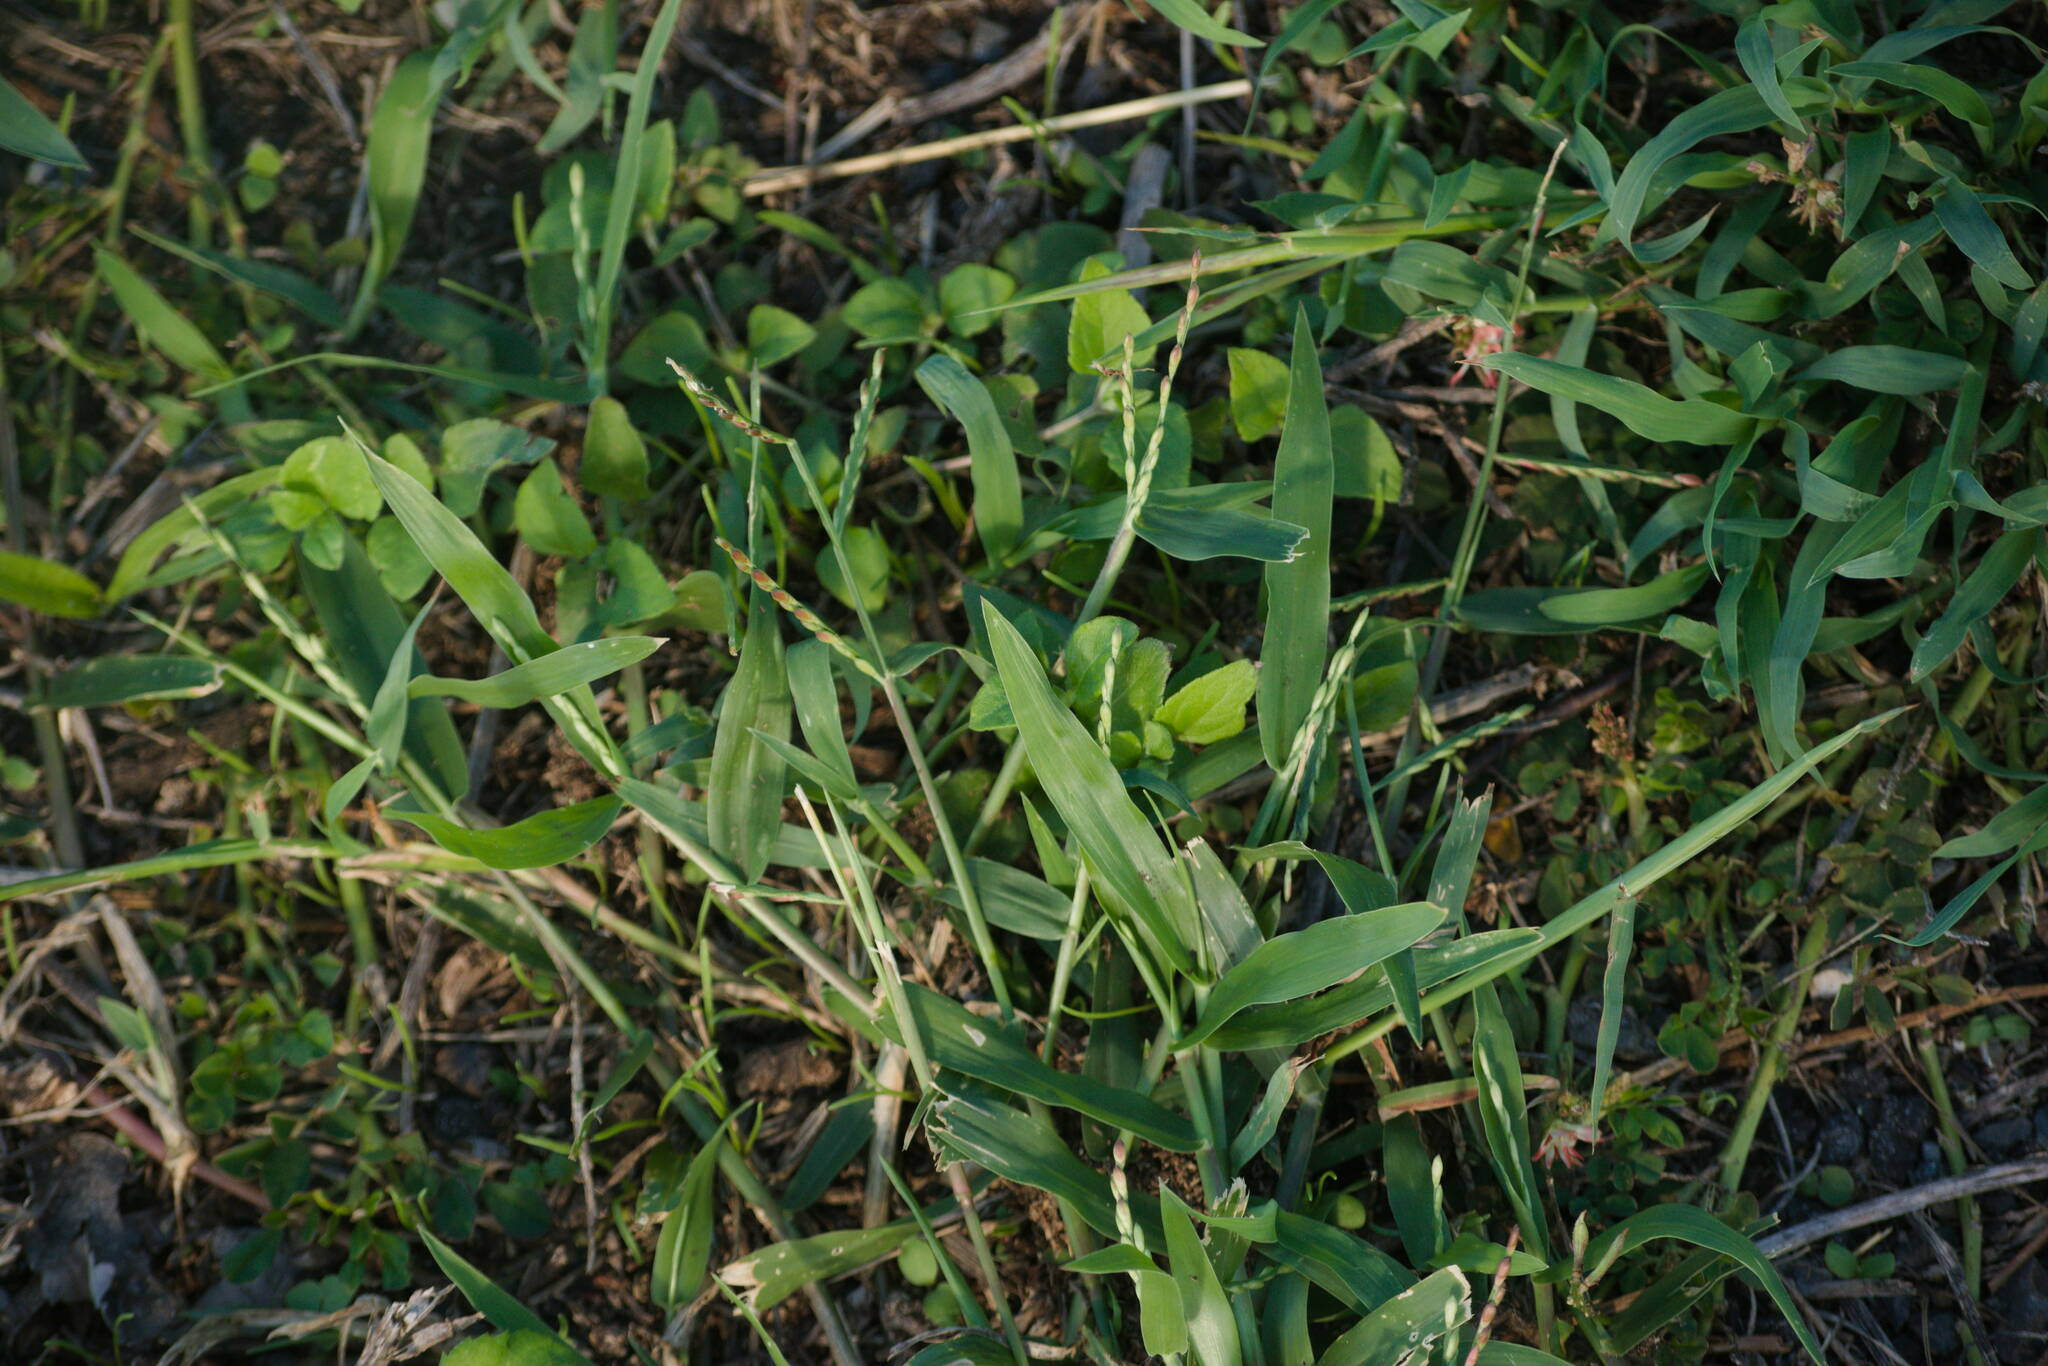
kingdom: Plantae
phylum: Tracheophyta
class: Liliopsida
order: Poales
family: Poaceae
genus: Urochloa
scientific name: Urochloa distachyos
